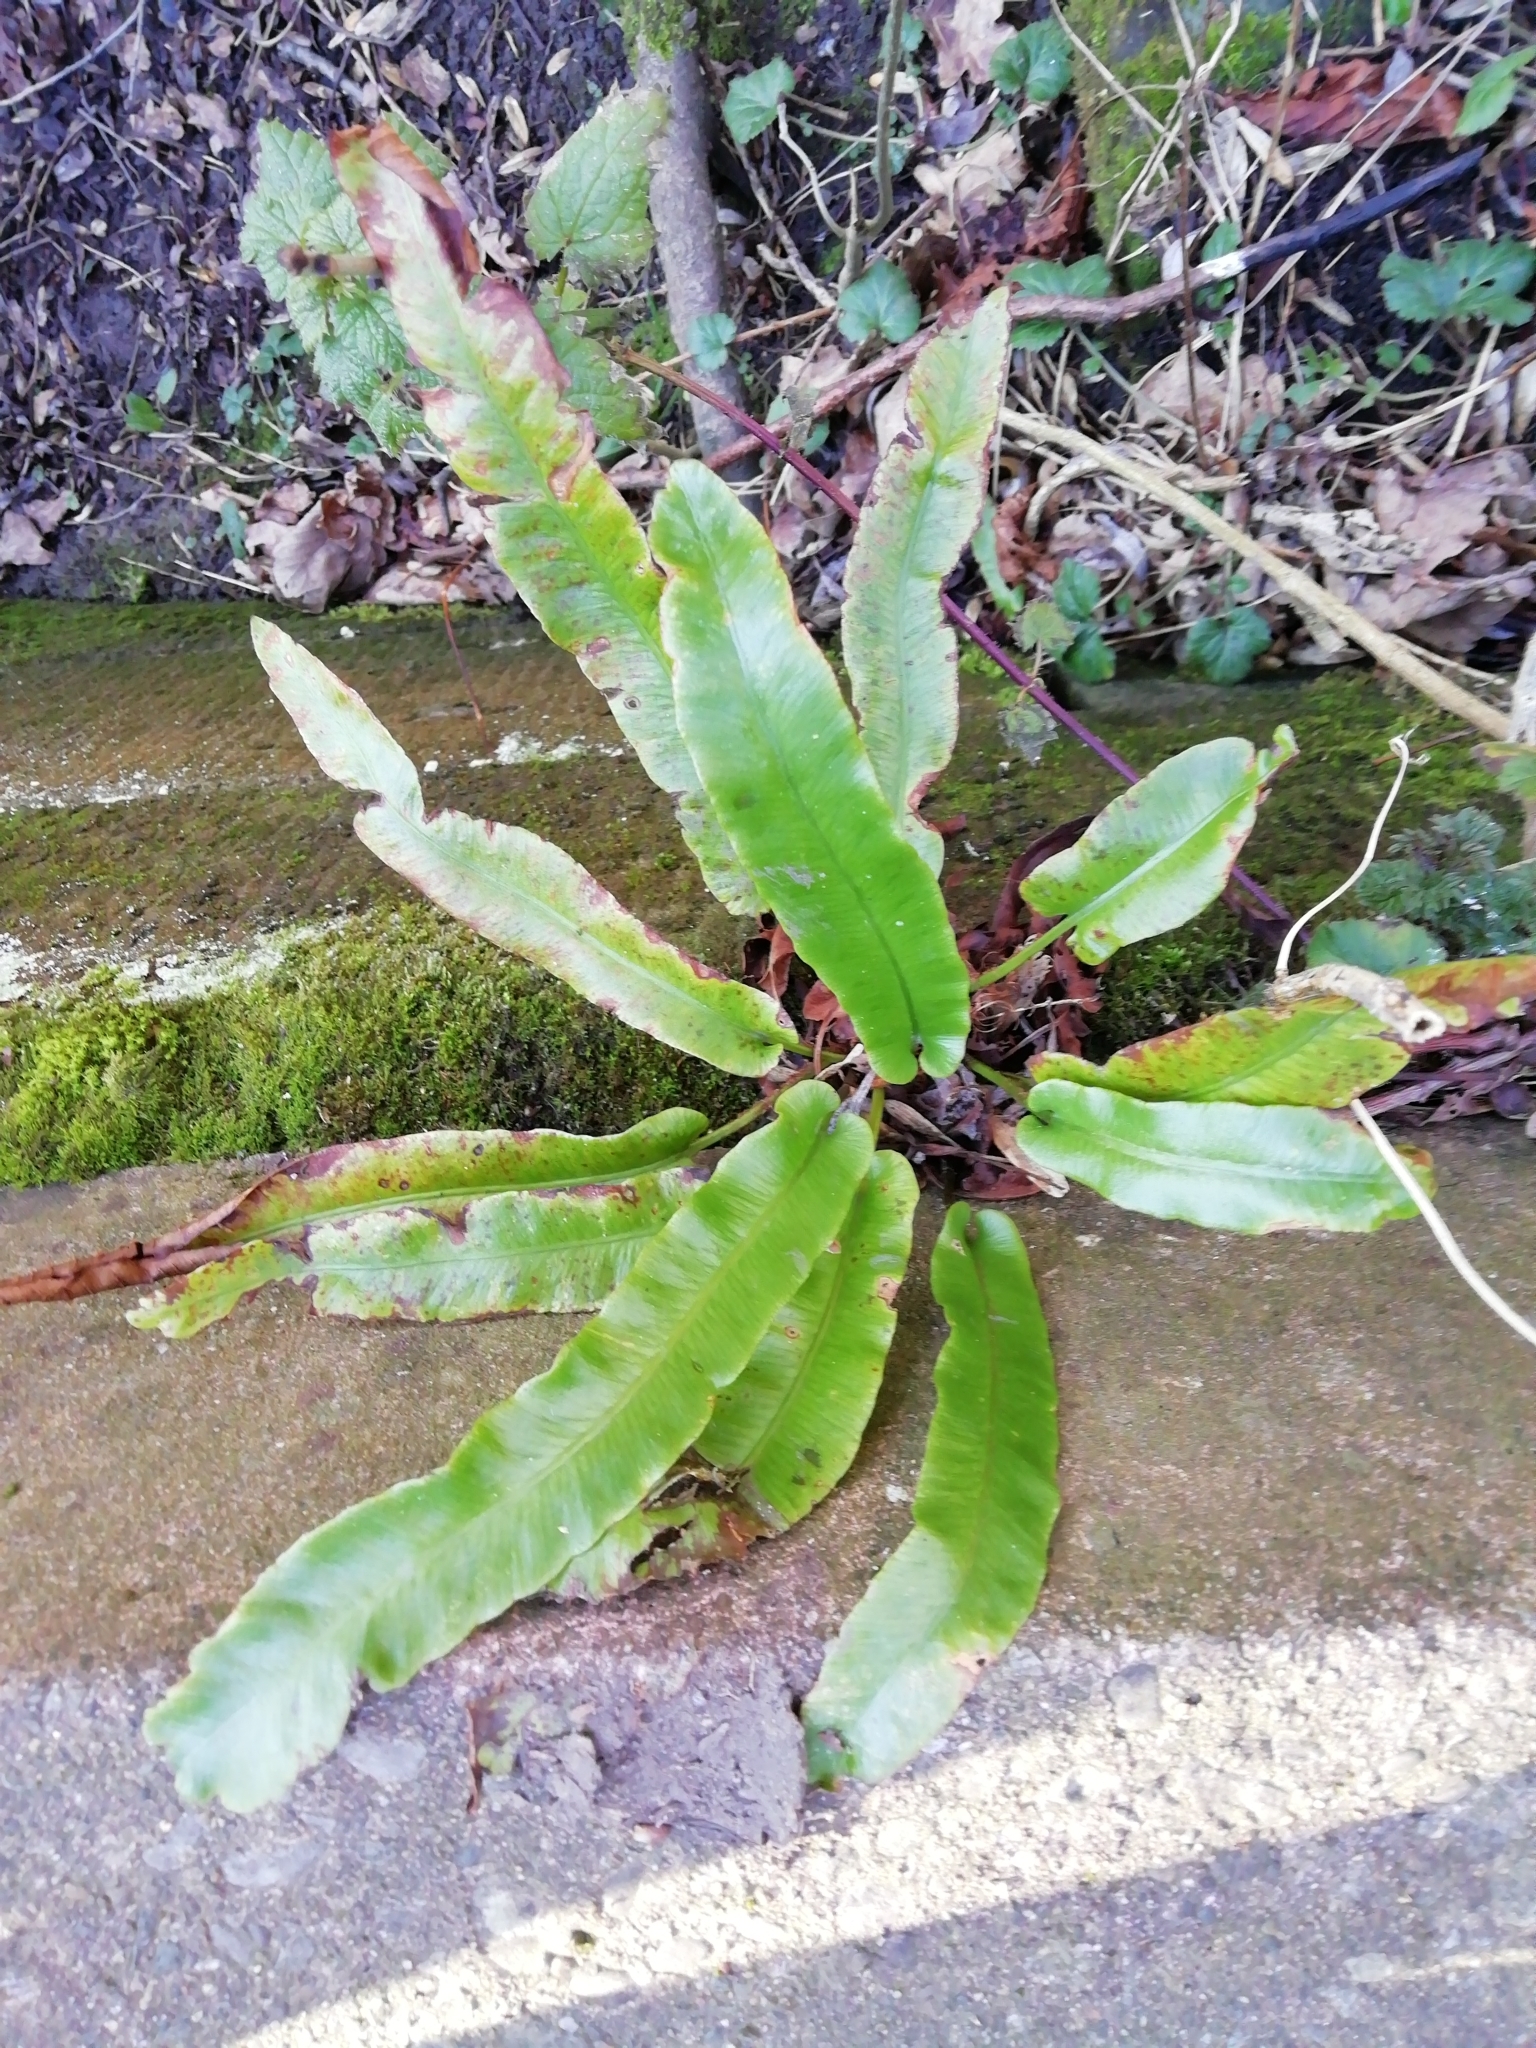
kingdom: Plantae
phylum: Tracheophyta
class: Polypodiopsida
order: Polypodiales
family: Aspleniaceae
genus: Asplenium
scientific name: Asplenium scolopendrium
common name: Hart's-tongue fern
